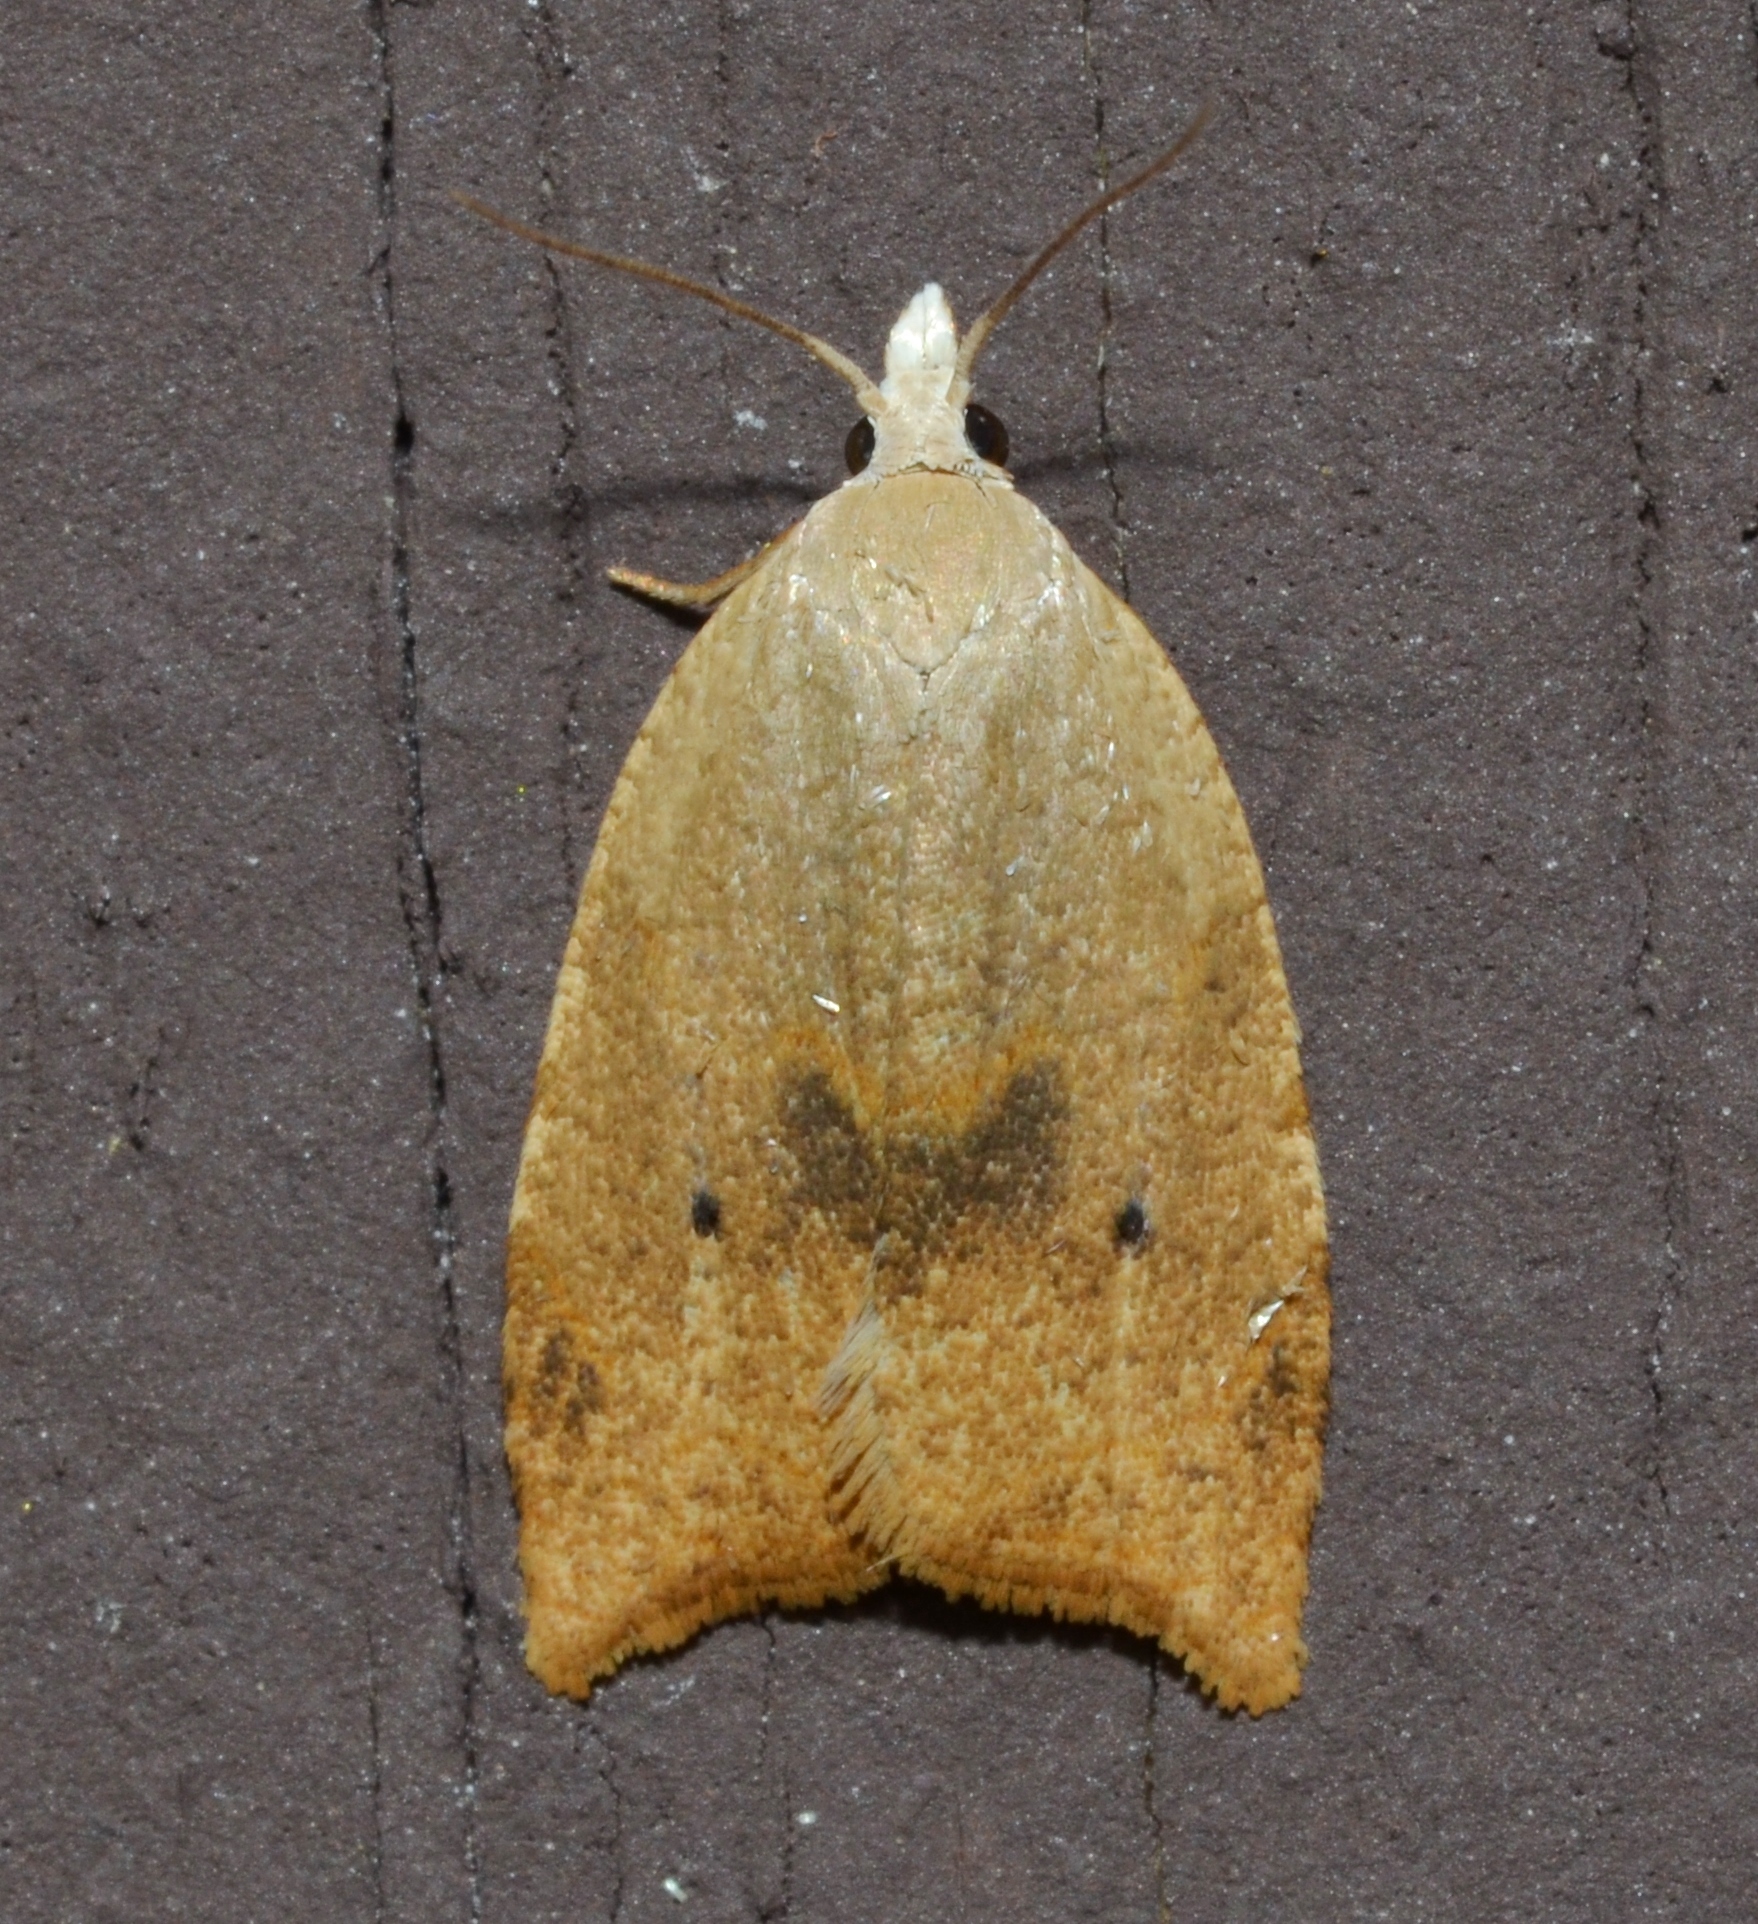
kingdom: Animalia
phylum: Arthropoda
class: Insecta
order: Lepidoptera
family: Tortricidae
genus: Coelostathma
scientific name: Coelostathma discopunctana
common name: Batman moth
